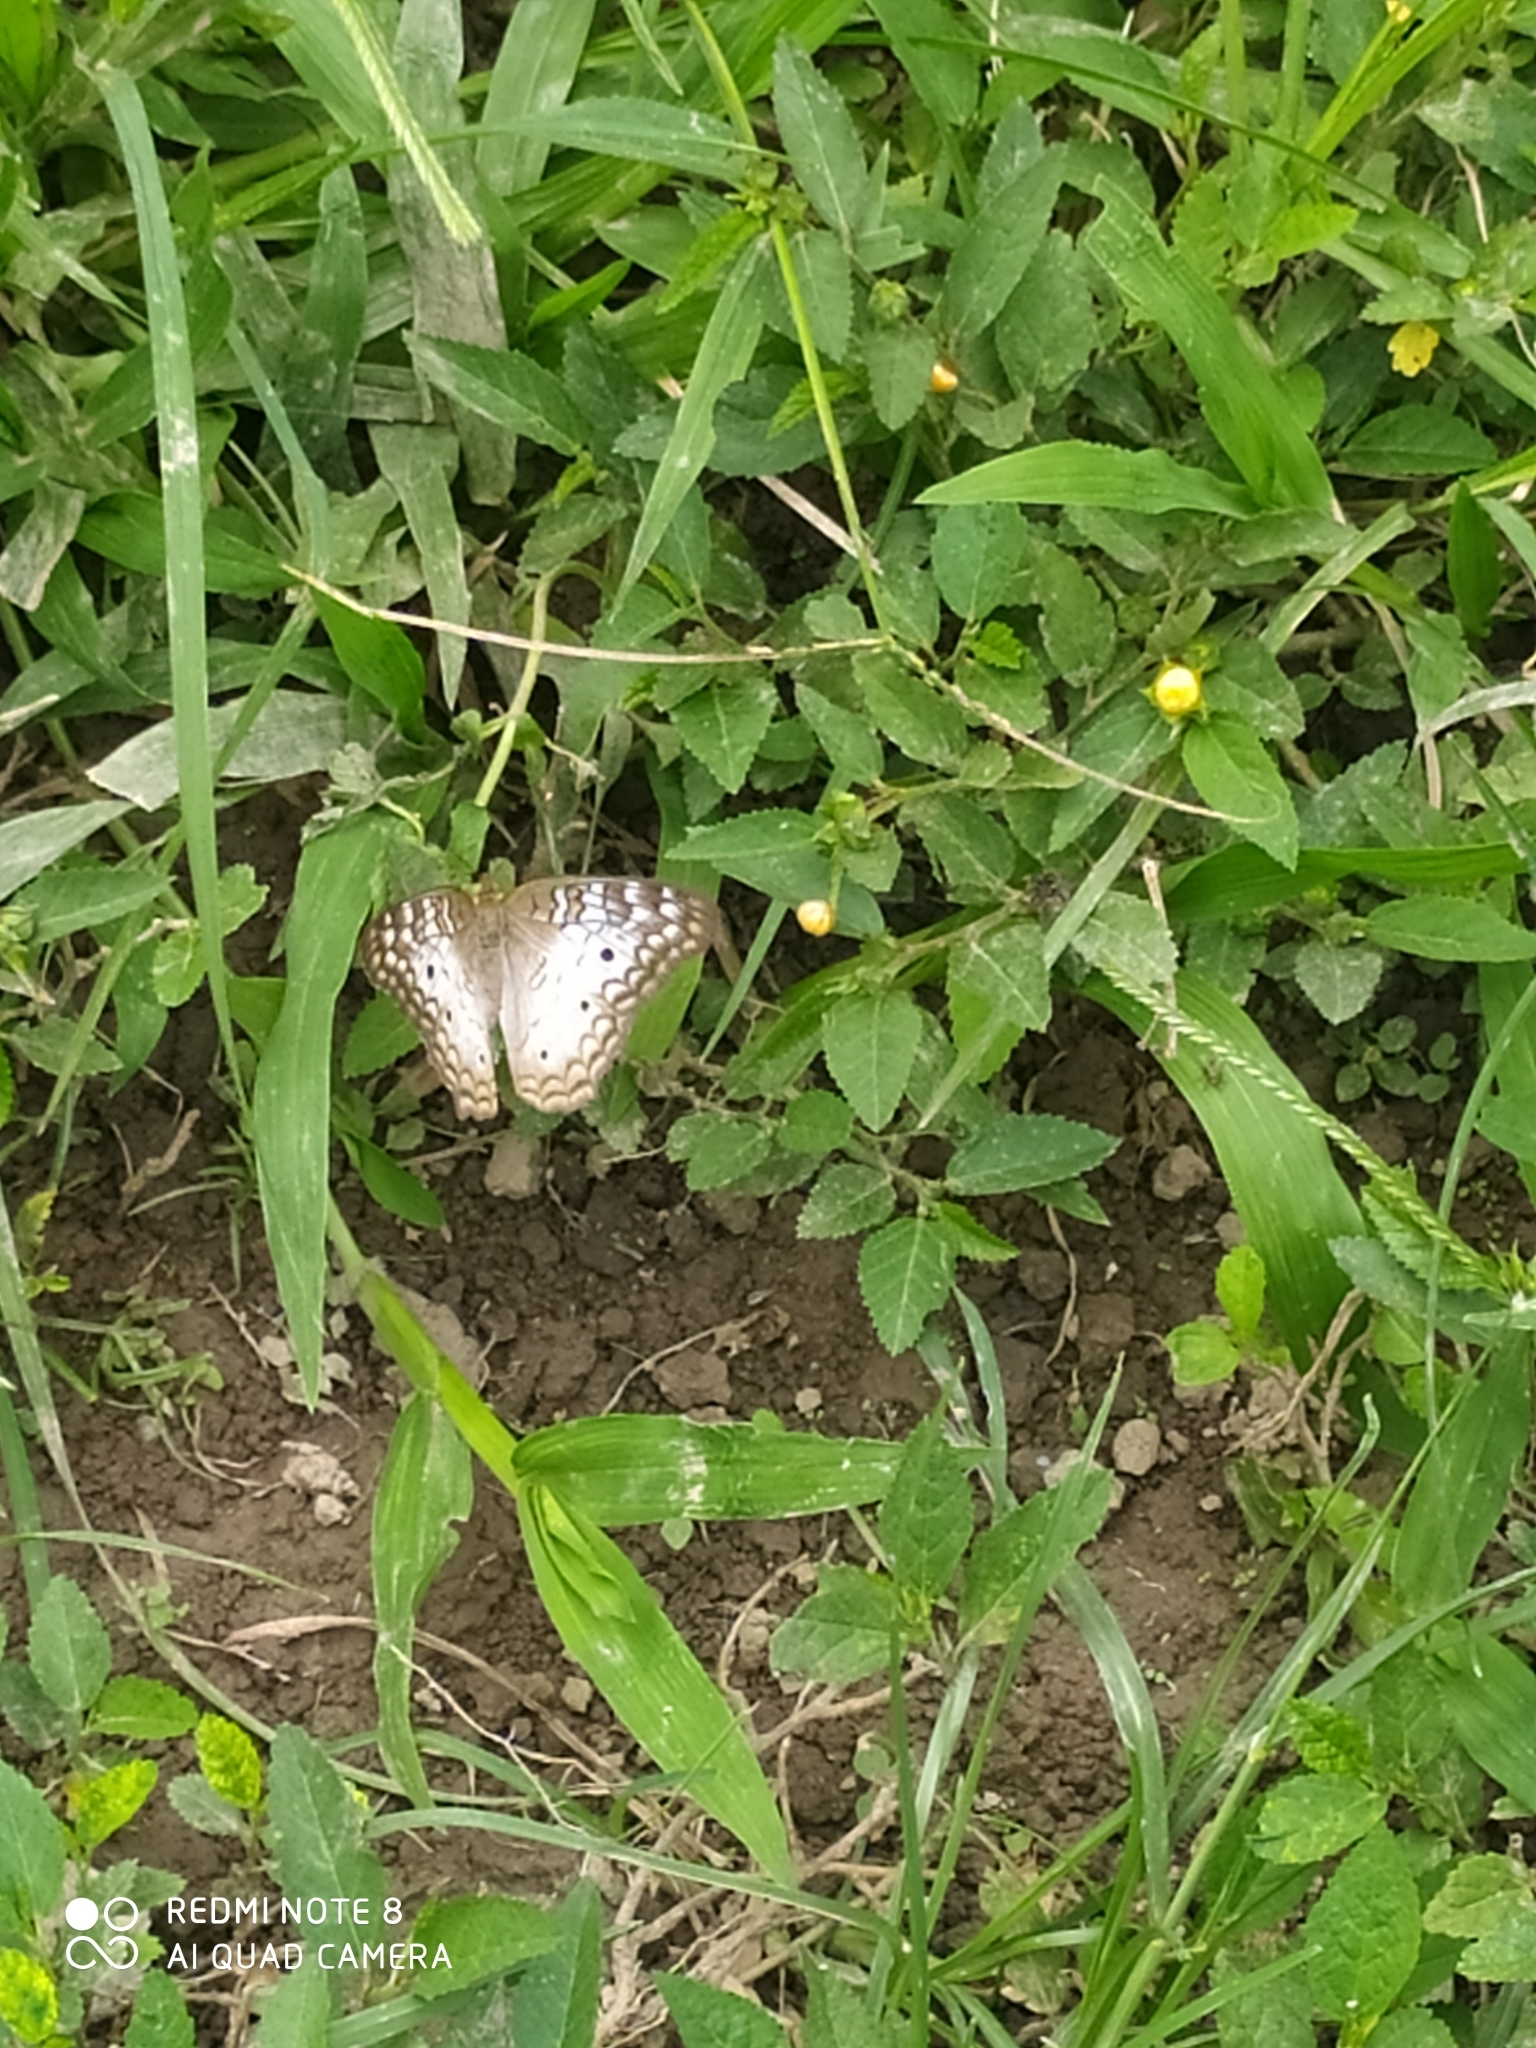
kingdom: Animalia
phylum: Arthropoda
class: Insecta
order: Lepidoptera
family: Nymphalidae
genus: Anartia
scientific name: Anartia jatrophae
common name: White peacock
